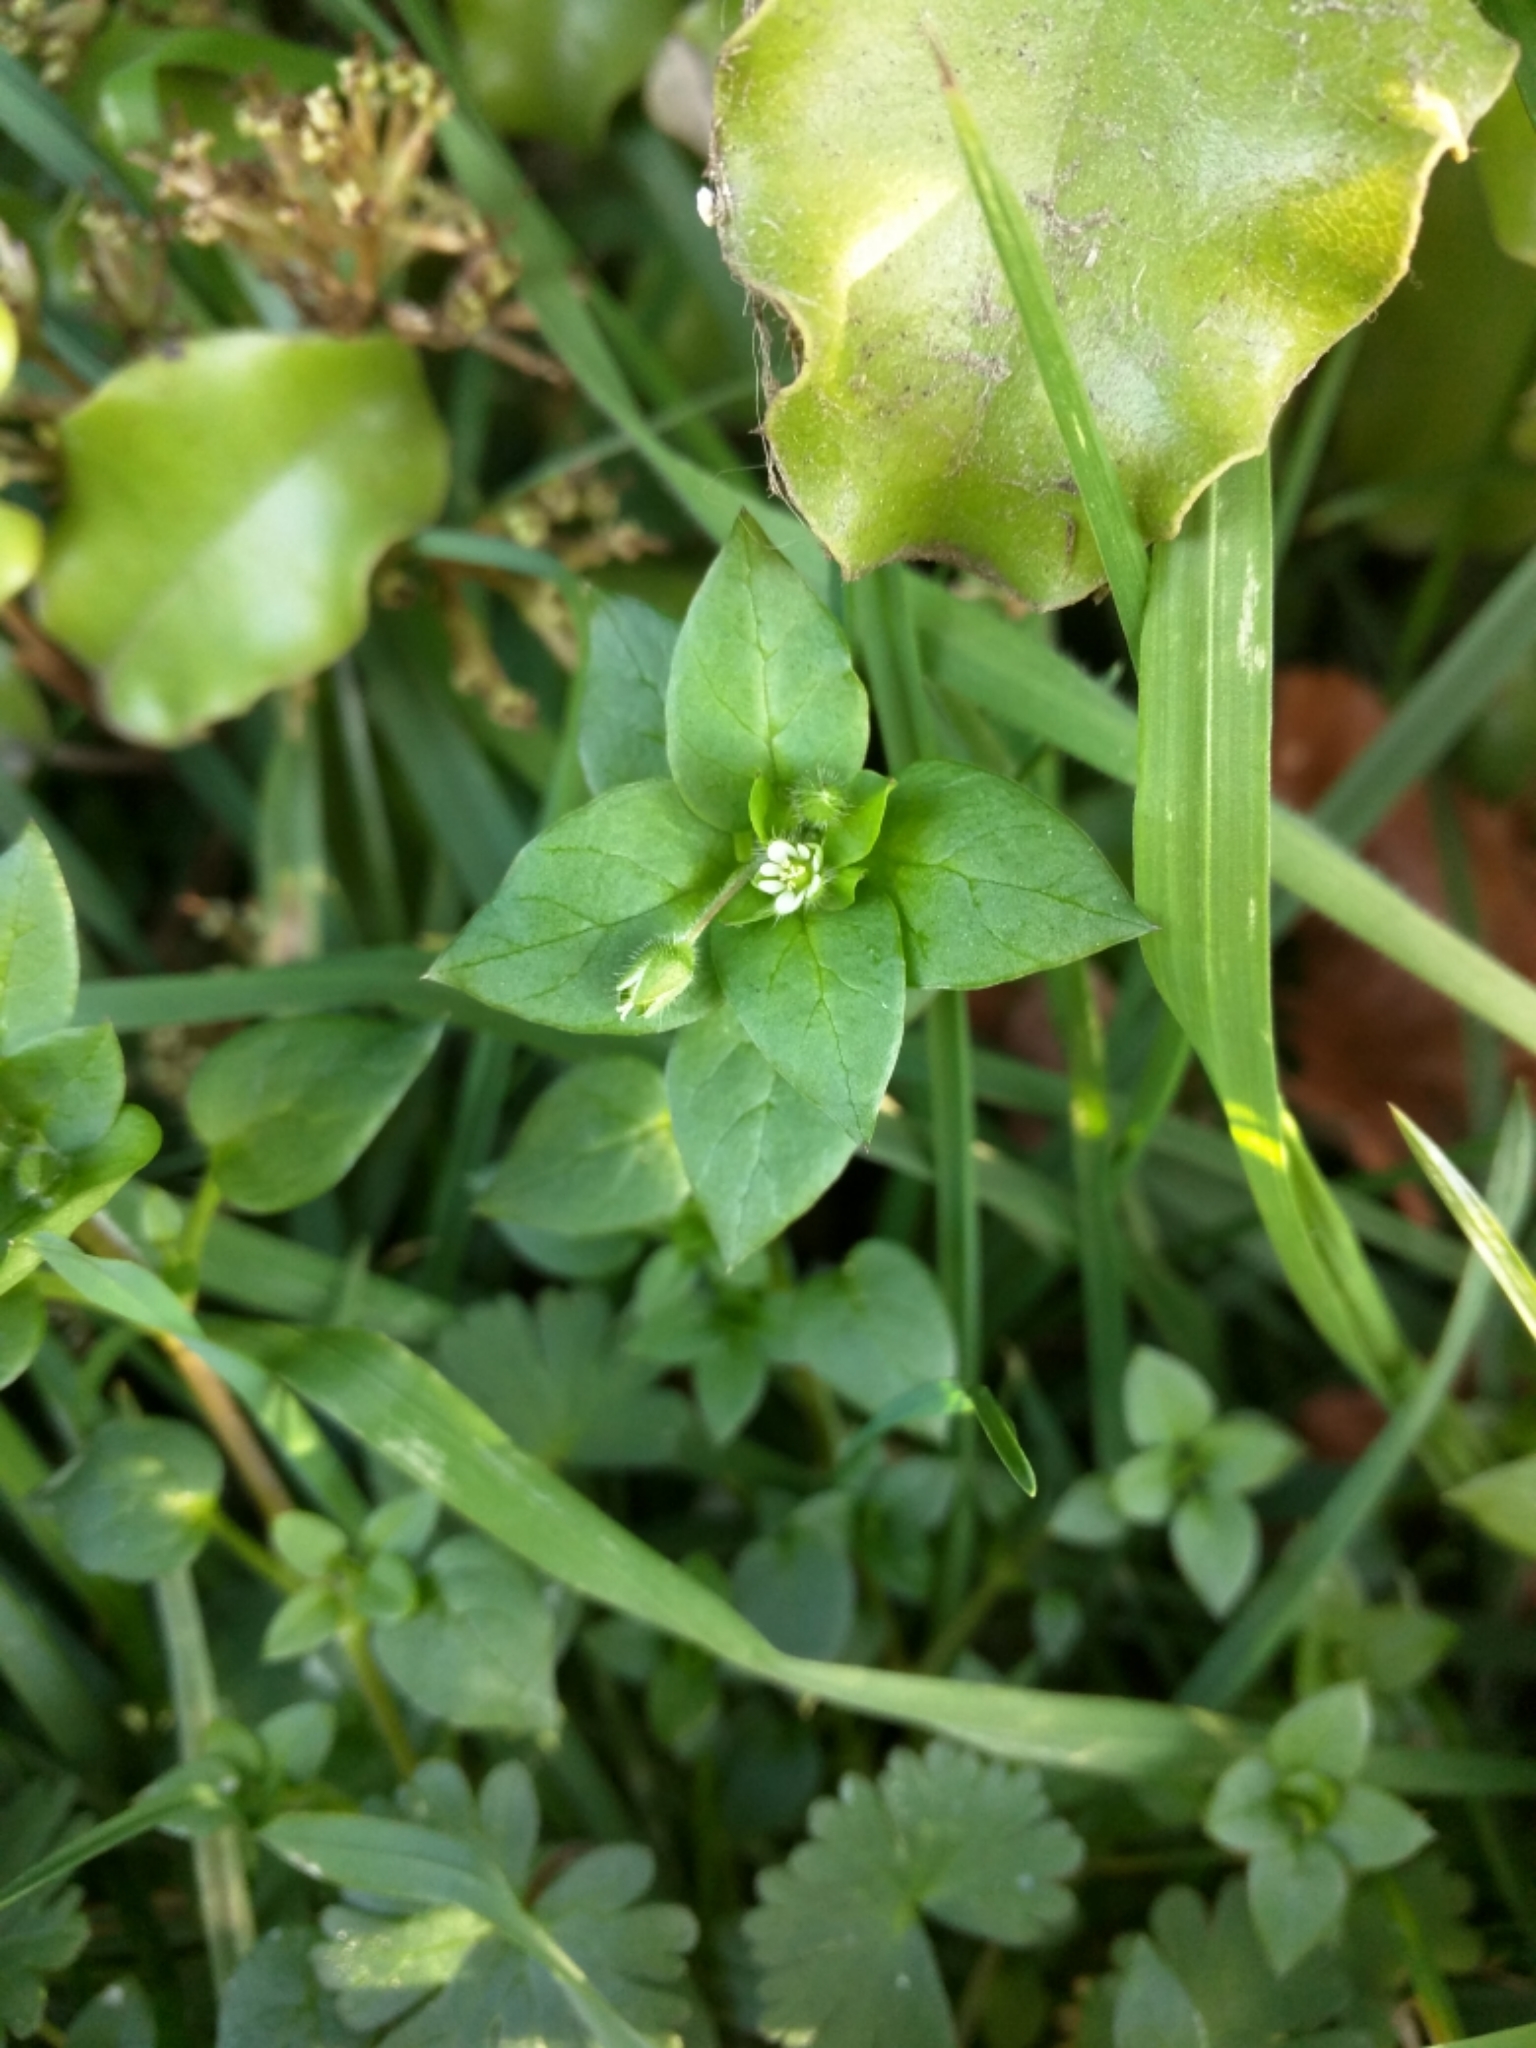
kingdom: Plantae
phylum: Tracheophyta
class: Magnoliopsida
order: Caryophyllales
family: Caryophyllaceae
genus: Stellaria
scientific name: Stellaria media
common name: Common chickweed
